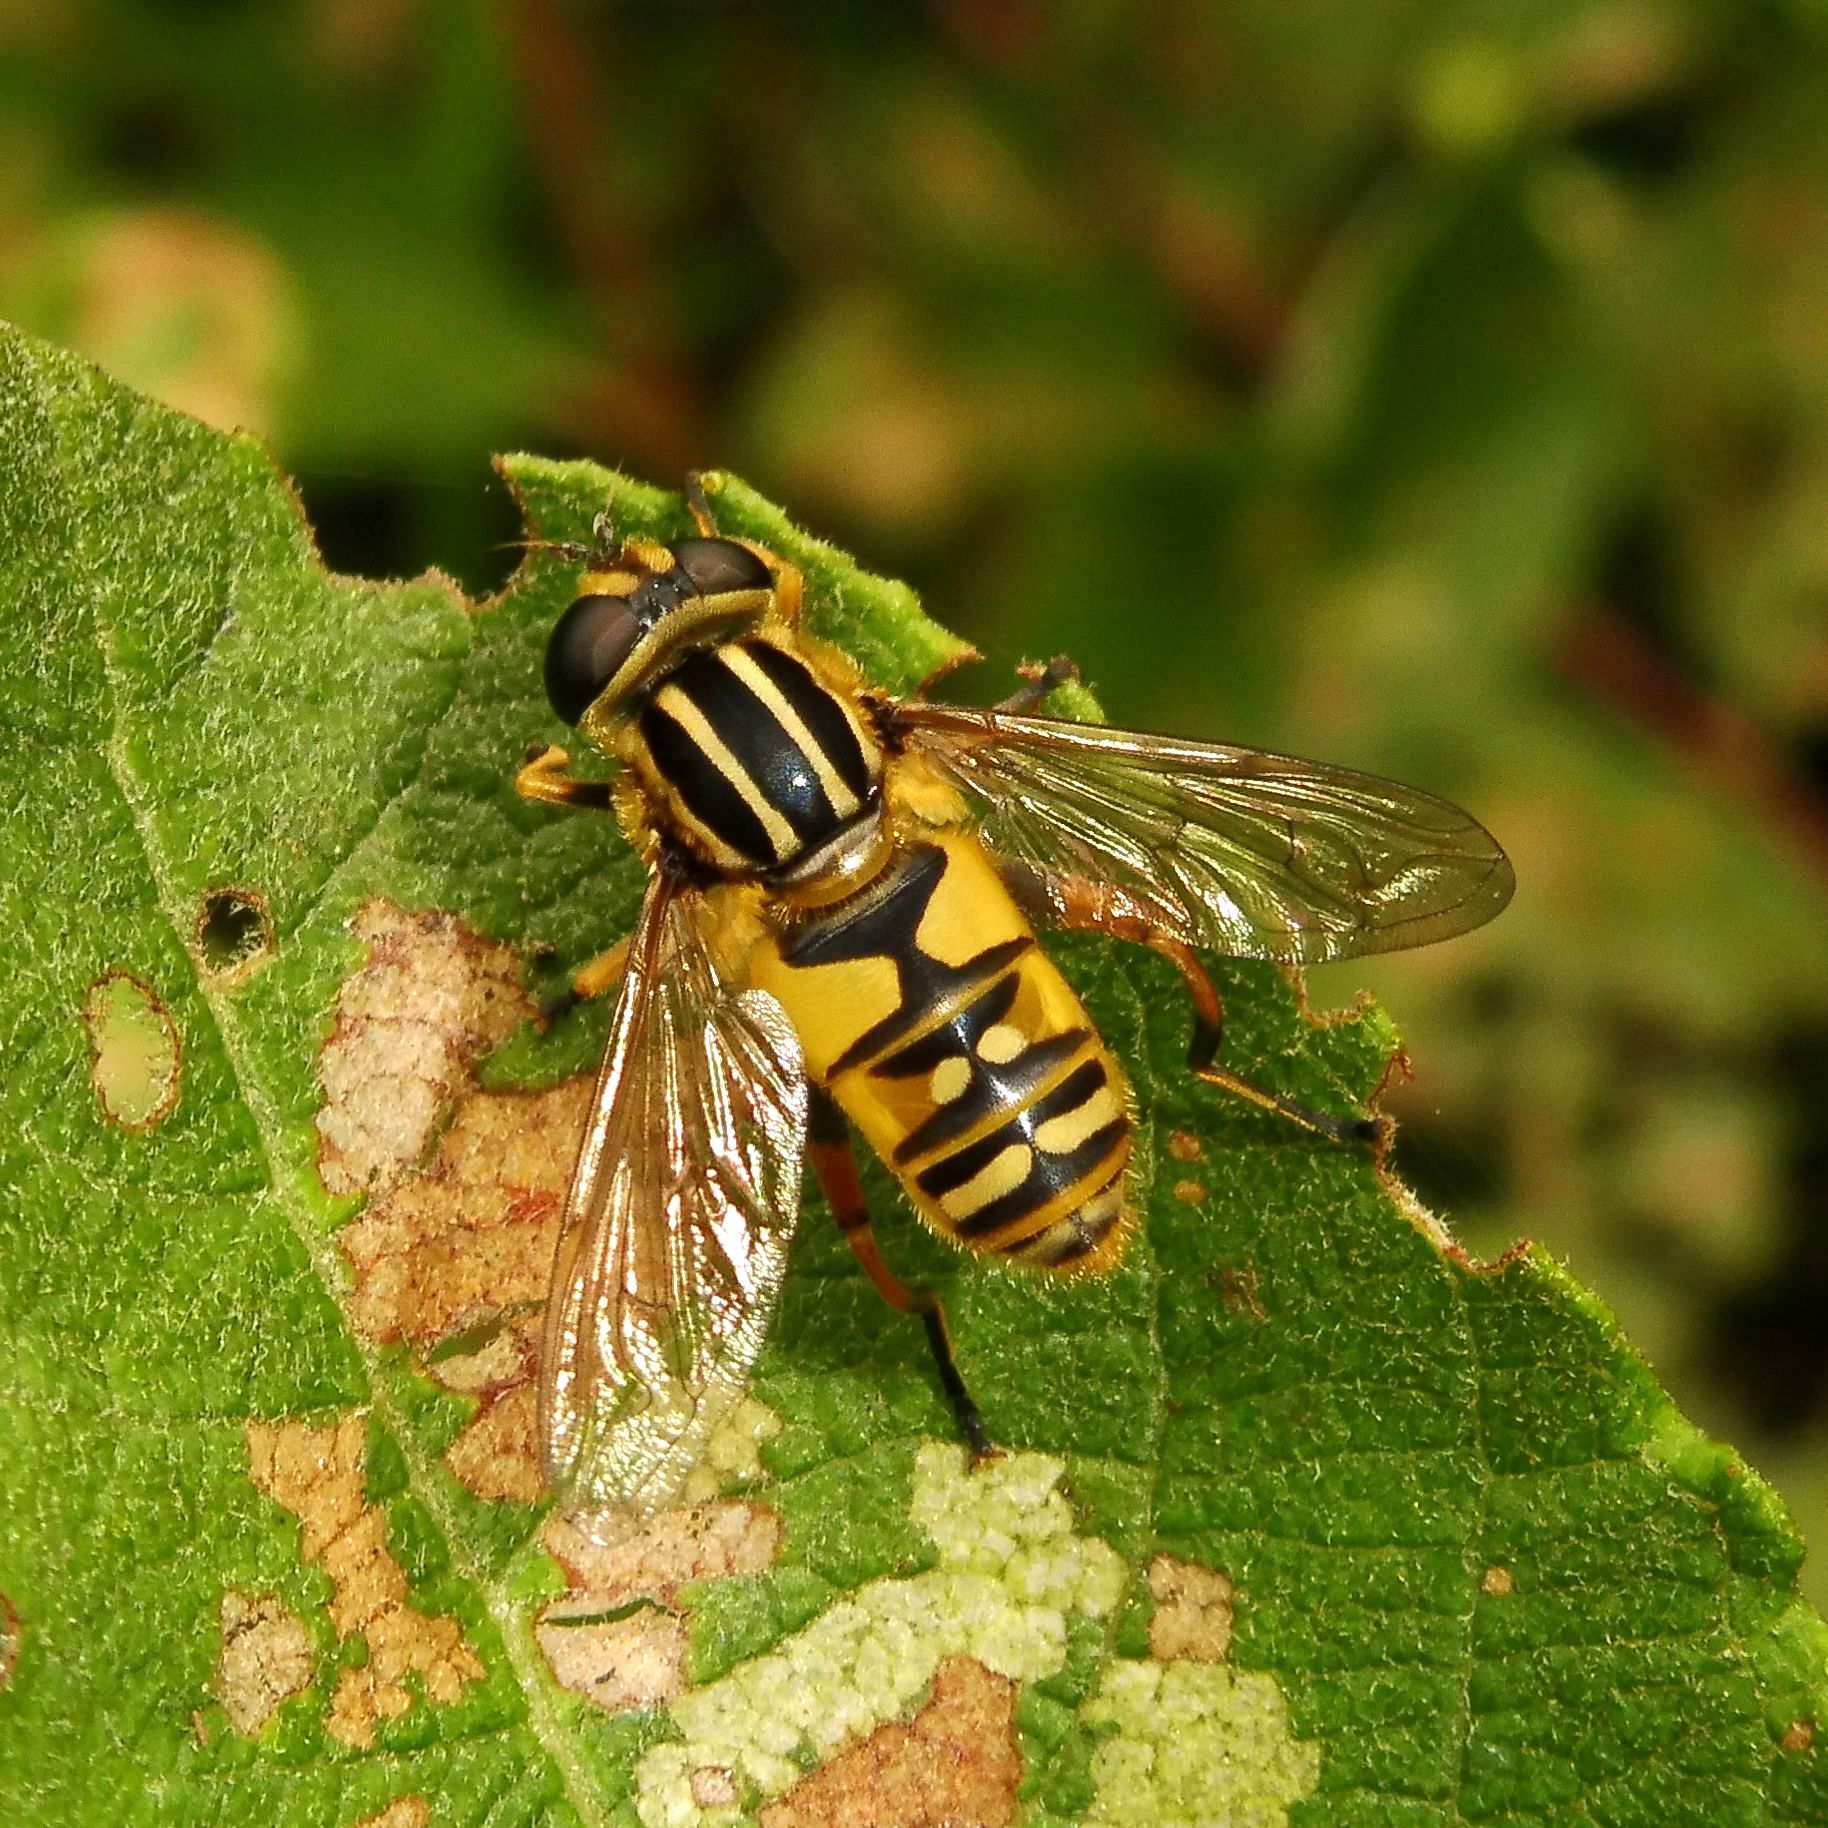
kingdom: Animalia
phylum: Arthropoda
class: Insecta
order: Diptera
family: Syrphidae
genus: Helophilus
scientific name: Helophilus pendulus
